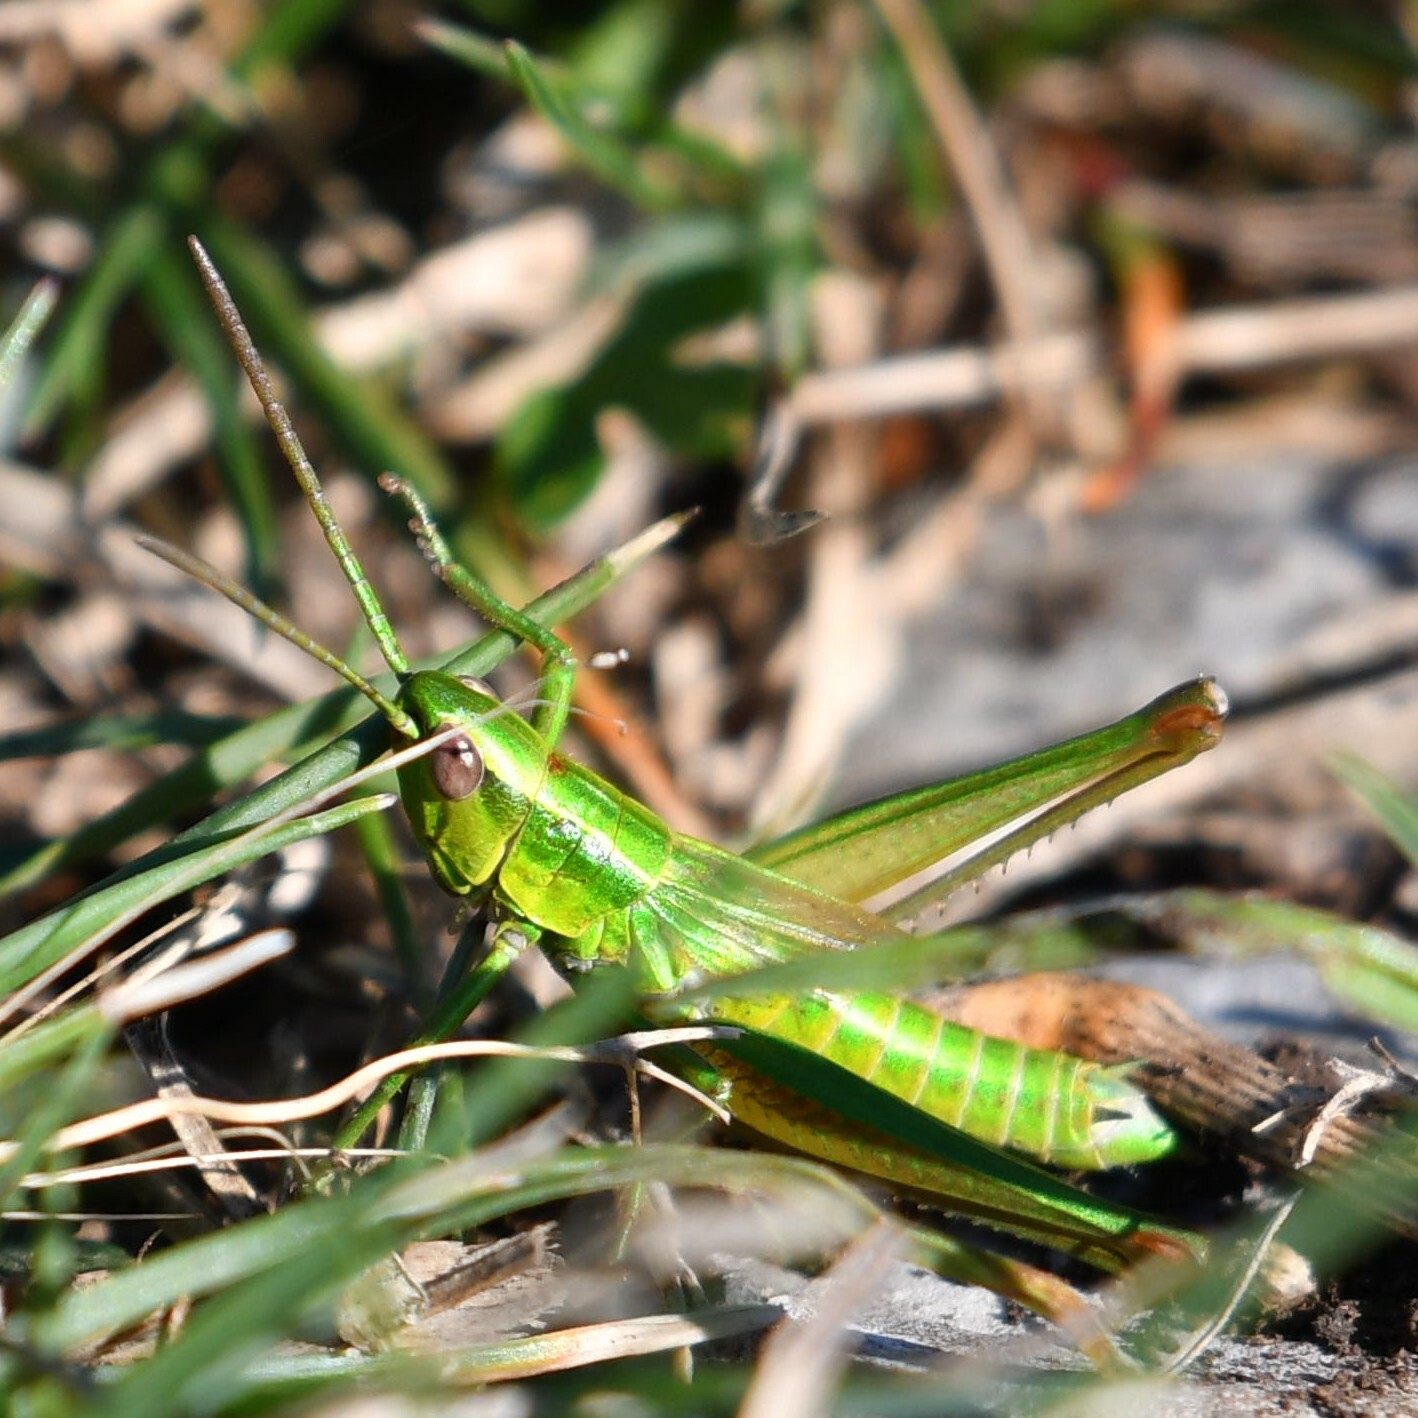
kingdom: Animalia
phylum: Arthropoda
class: Insecta
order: Orthoptera
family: Acrididae
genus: Euthystira
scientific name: Euthystira brachyptera
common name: Small gold grasshopper
